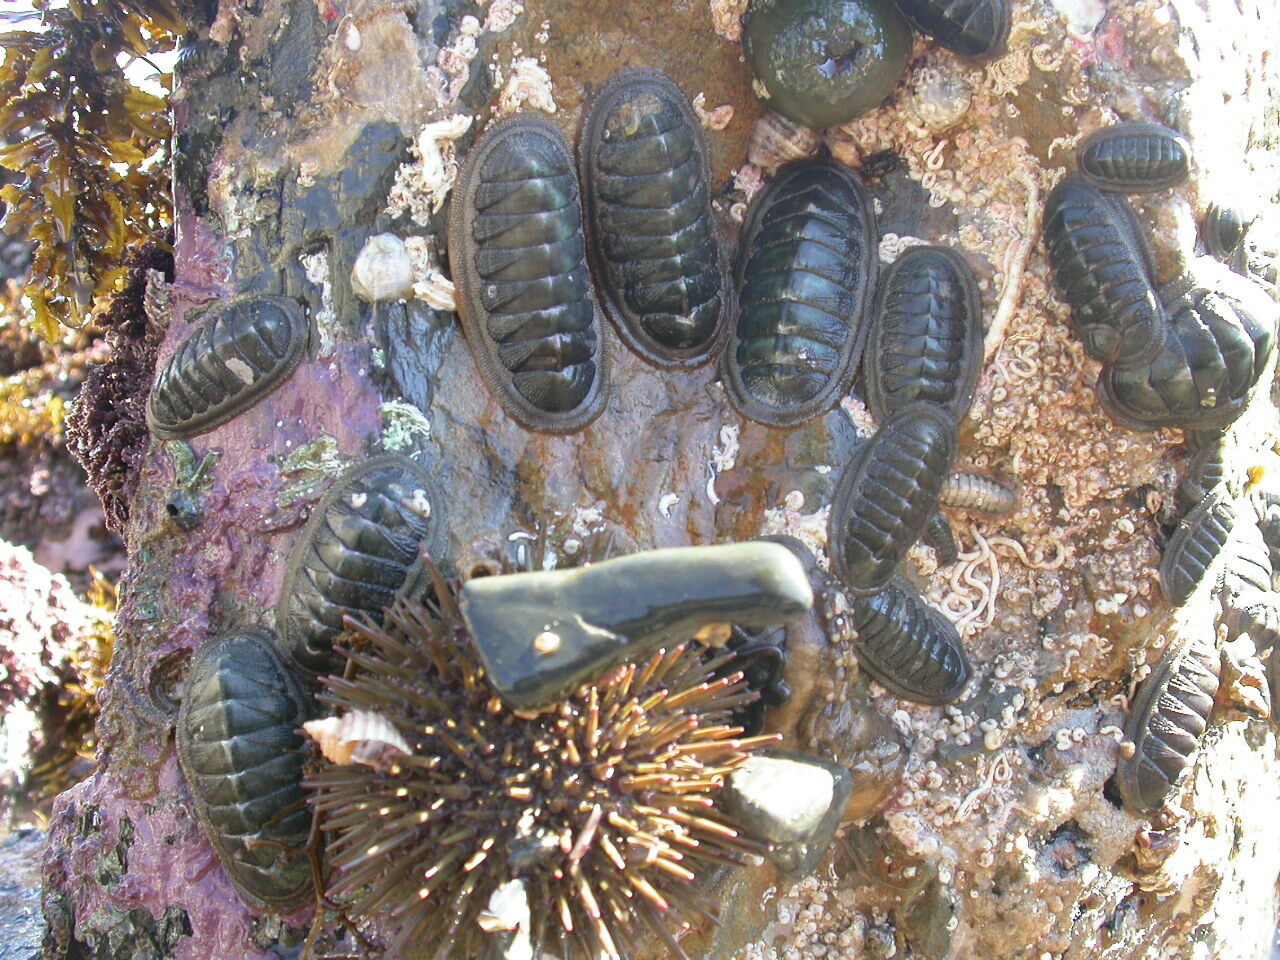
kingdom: Animalia
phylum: Mollusca
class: Polyplacophora
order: Chitonida
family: Ischnochitonidae
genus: Ischnochiton
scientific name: Ischnochiton australis
